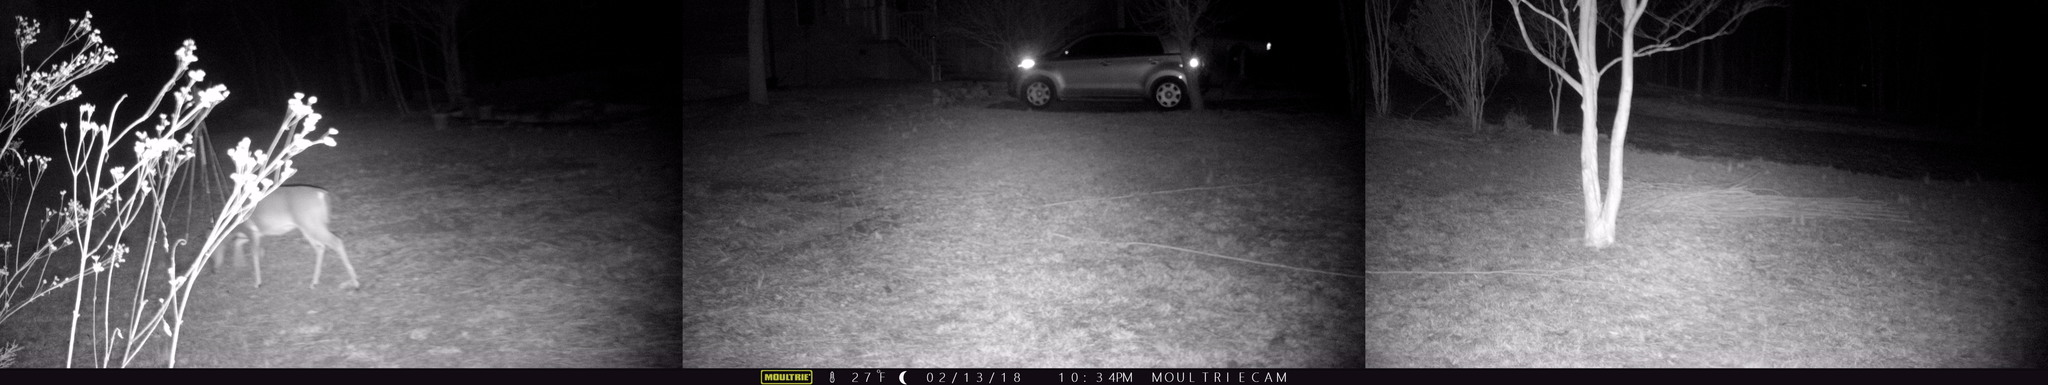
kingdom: Animalia
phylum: Chordata
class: Mammalia
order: Artiodactyla
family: Cervidae
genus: Odocoileus
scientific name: Odocoileus virginianus
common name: White-tailed deer
